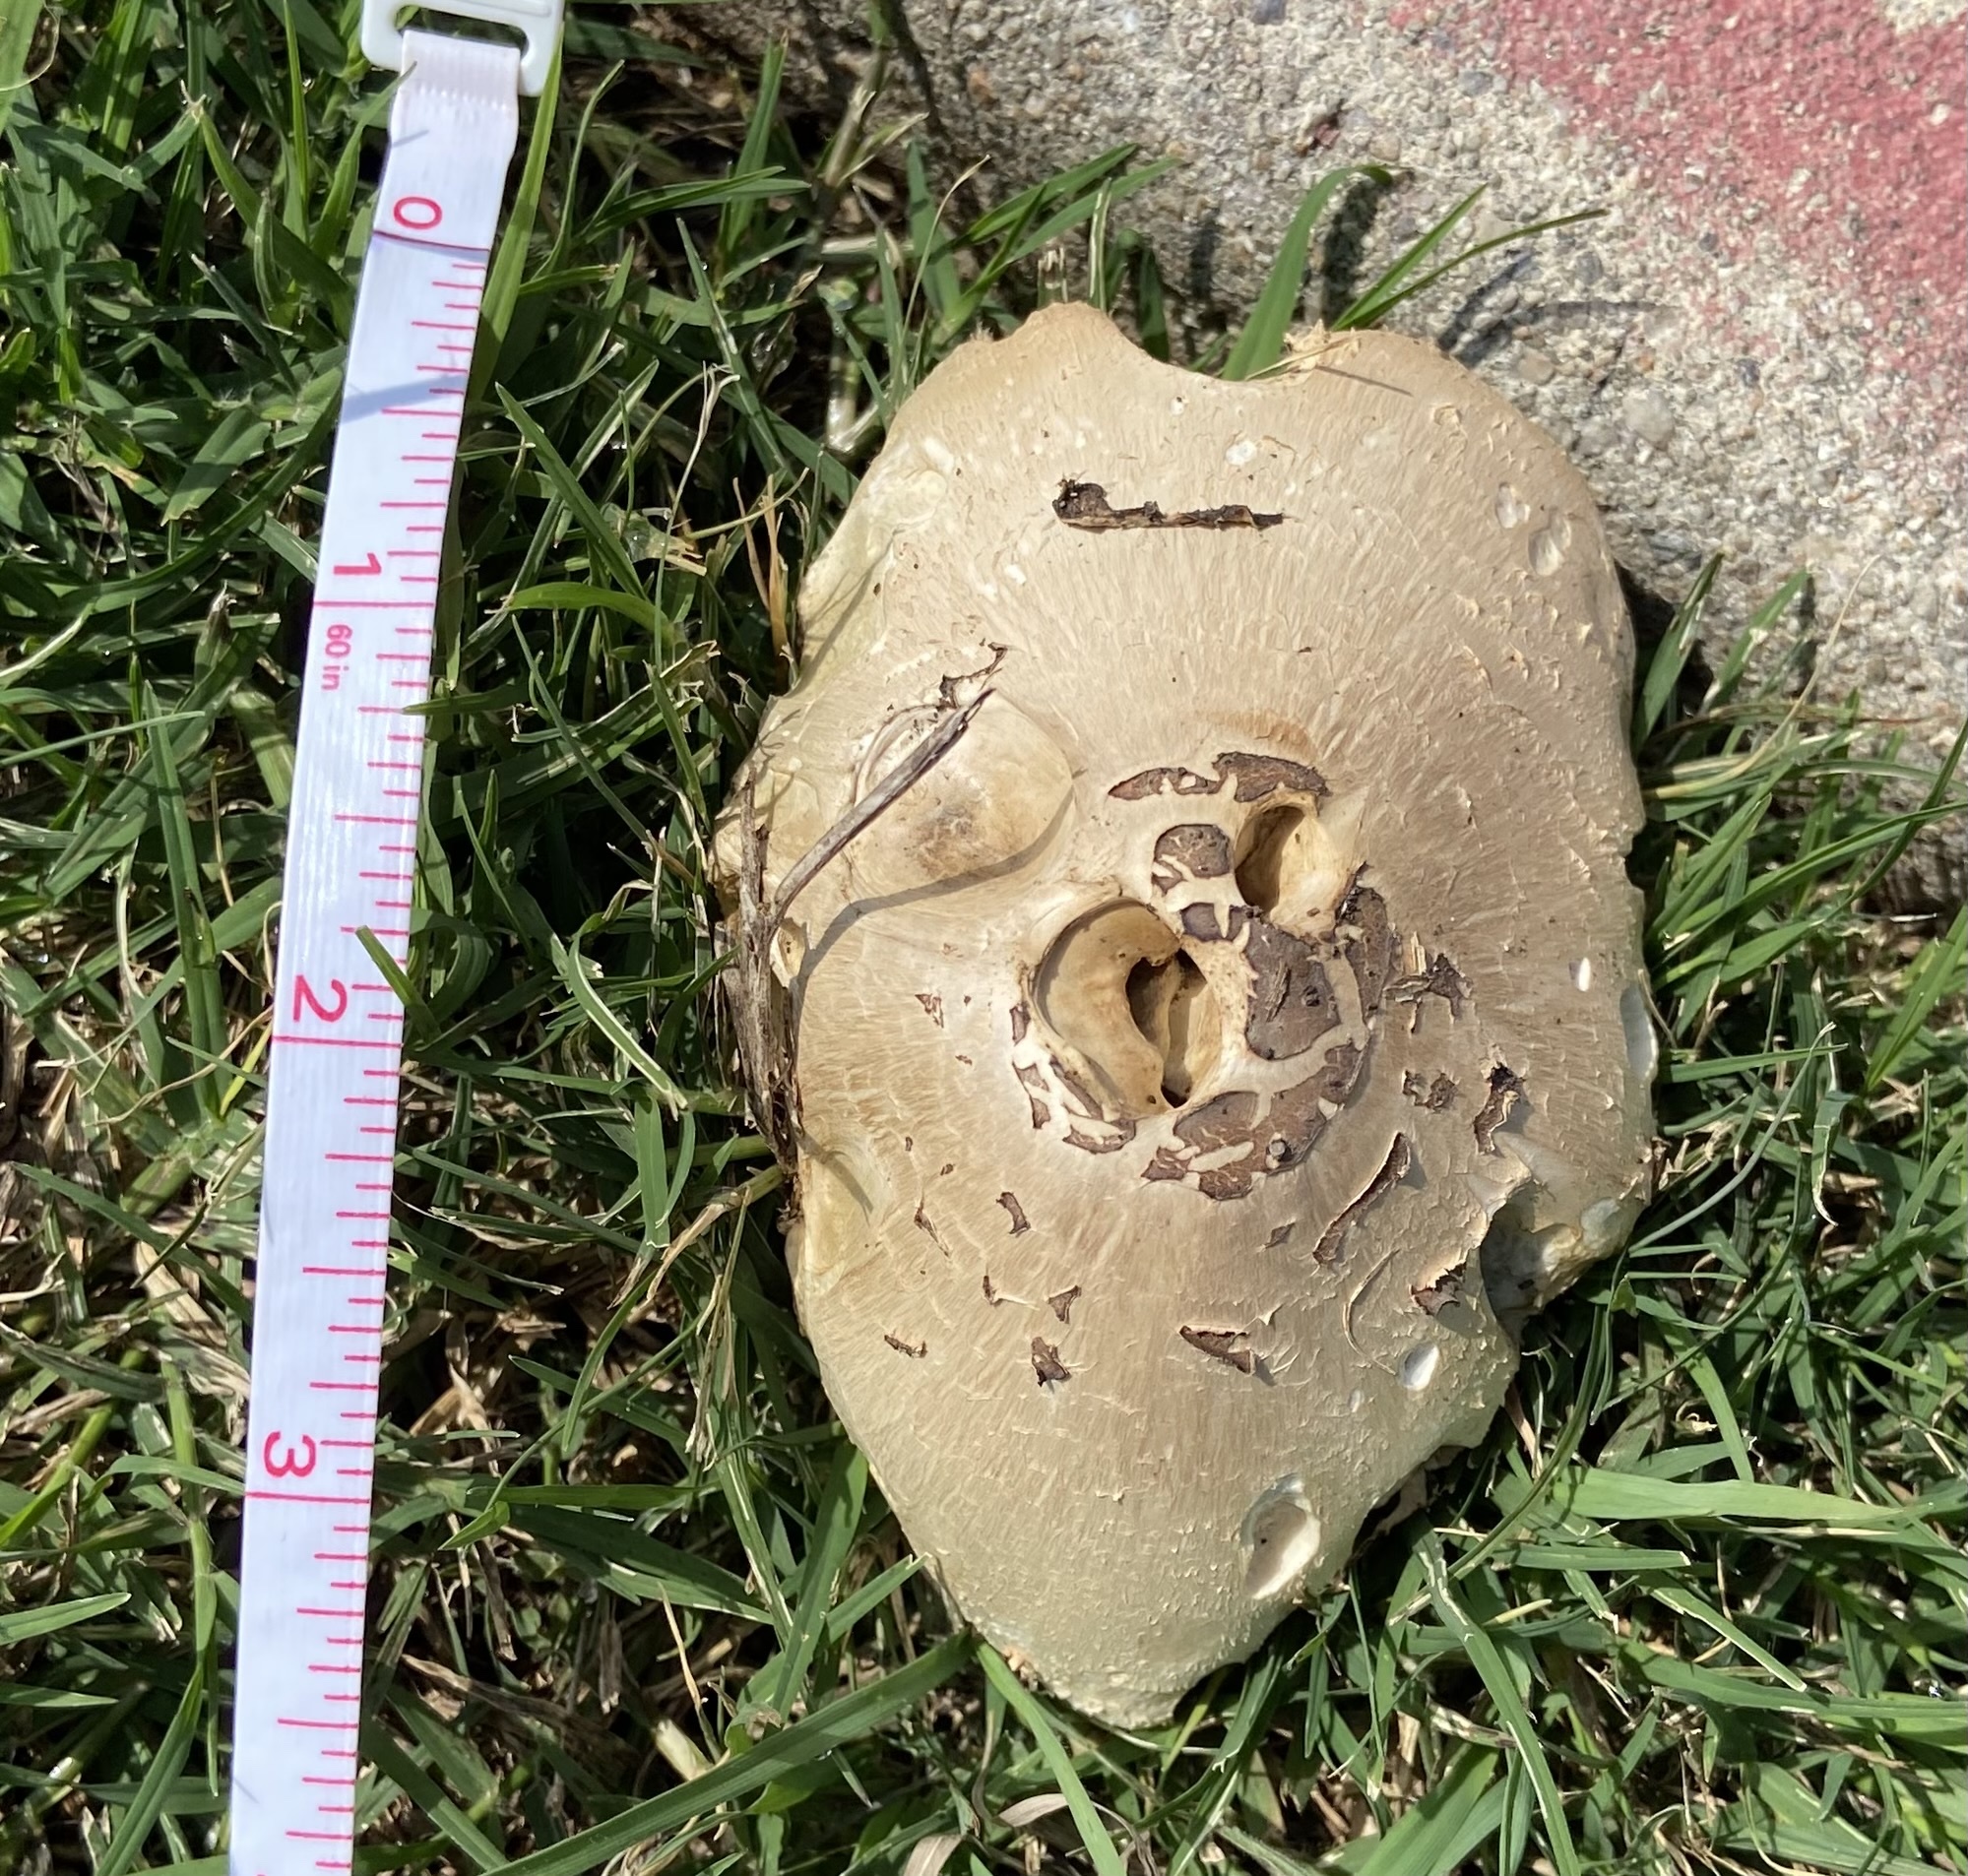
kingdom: Fungi
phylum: Basidiomycota
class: Agaricomycetes
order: Agaricales
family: Agaricaceae
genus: Chlorophyllum
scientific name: Chlorophyllum molybdites
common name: False parasol
